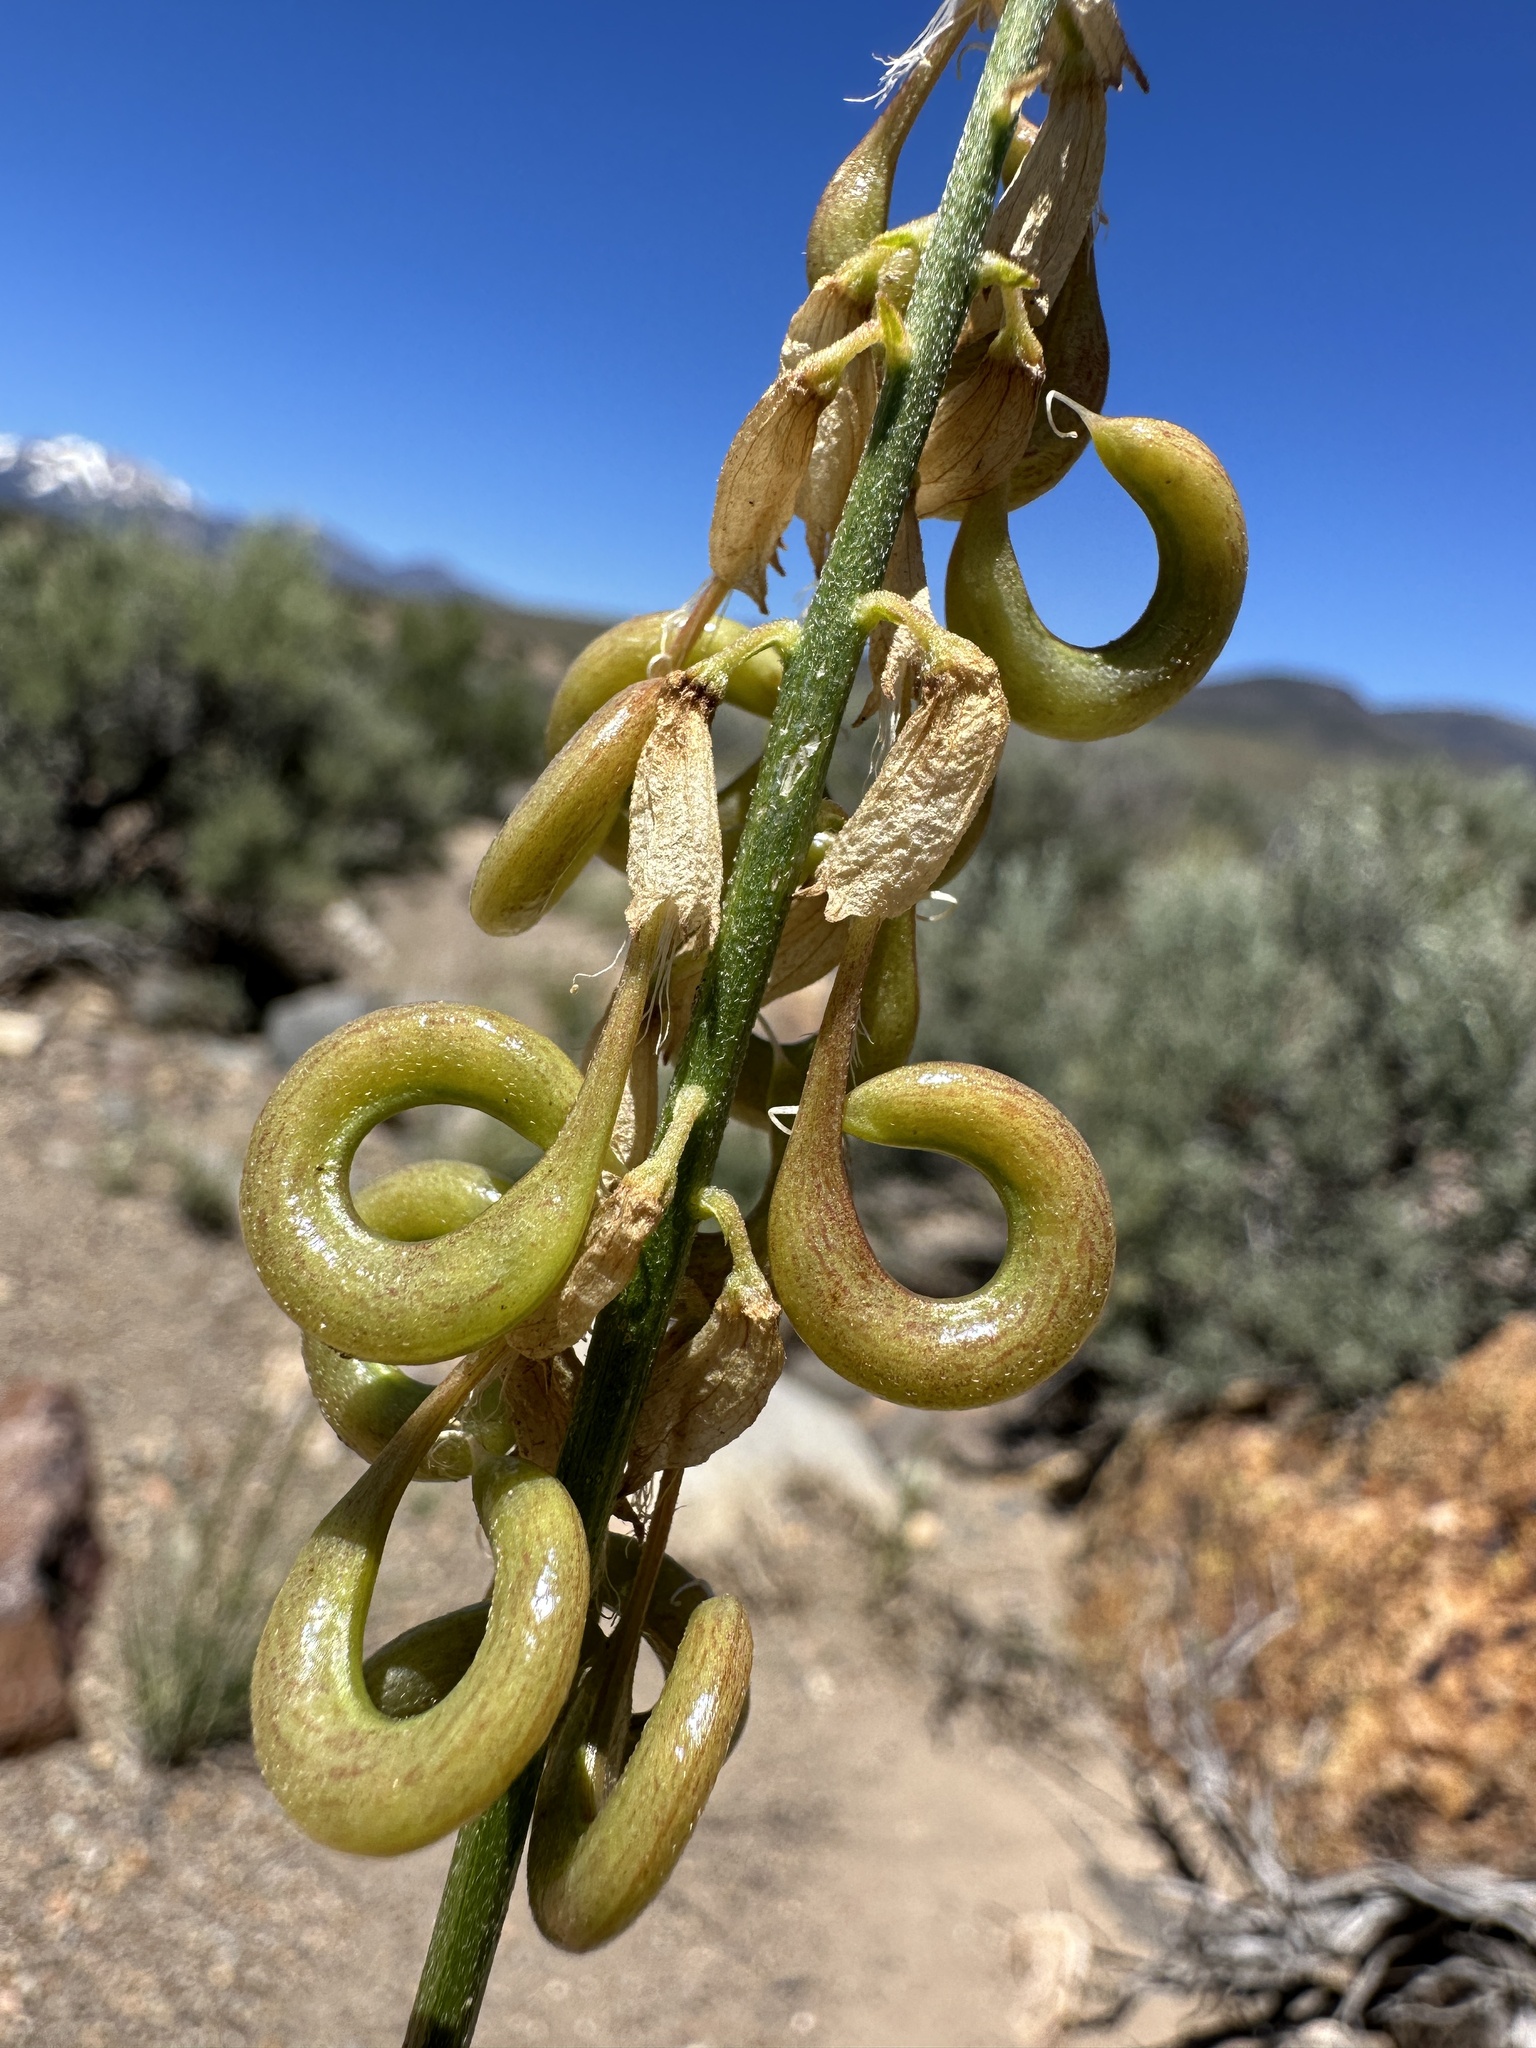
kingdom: Plantae
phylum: Tracheophyta
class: Magnoliopsida
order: Fabales
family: Fabaceae
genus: Astragalus
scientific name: Astragalus curvicarpus
